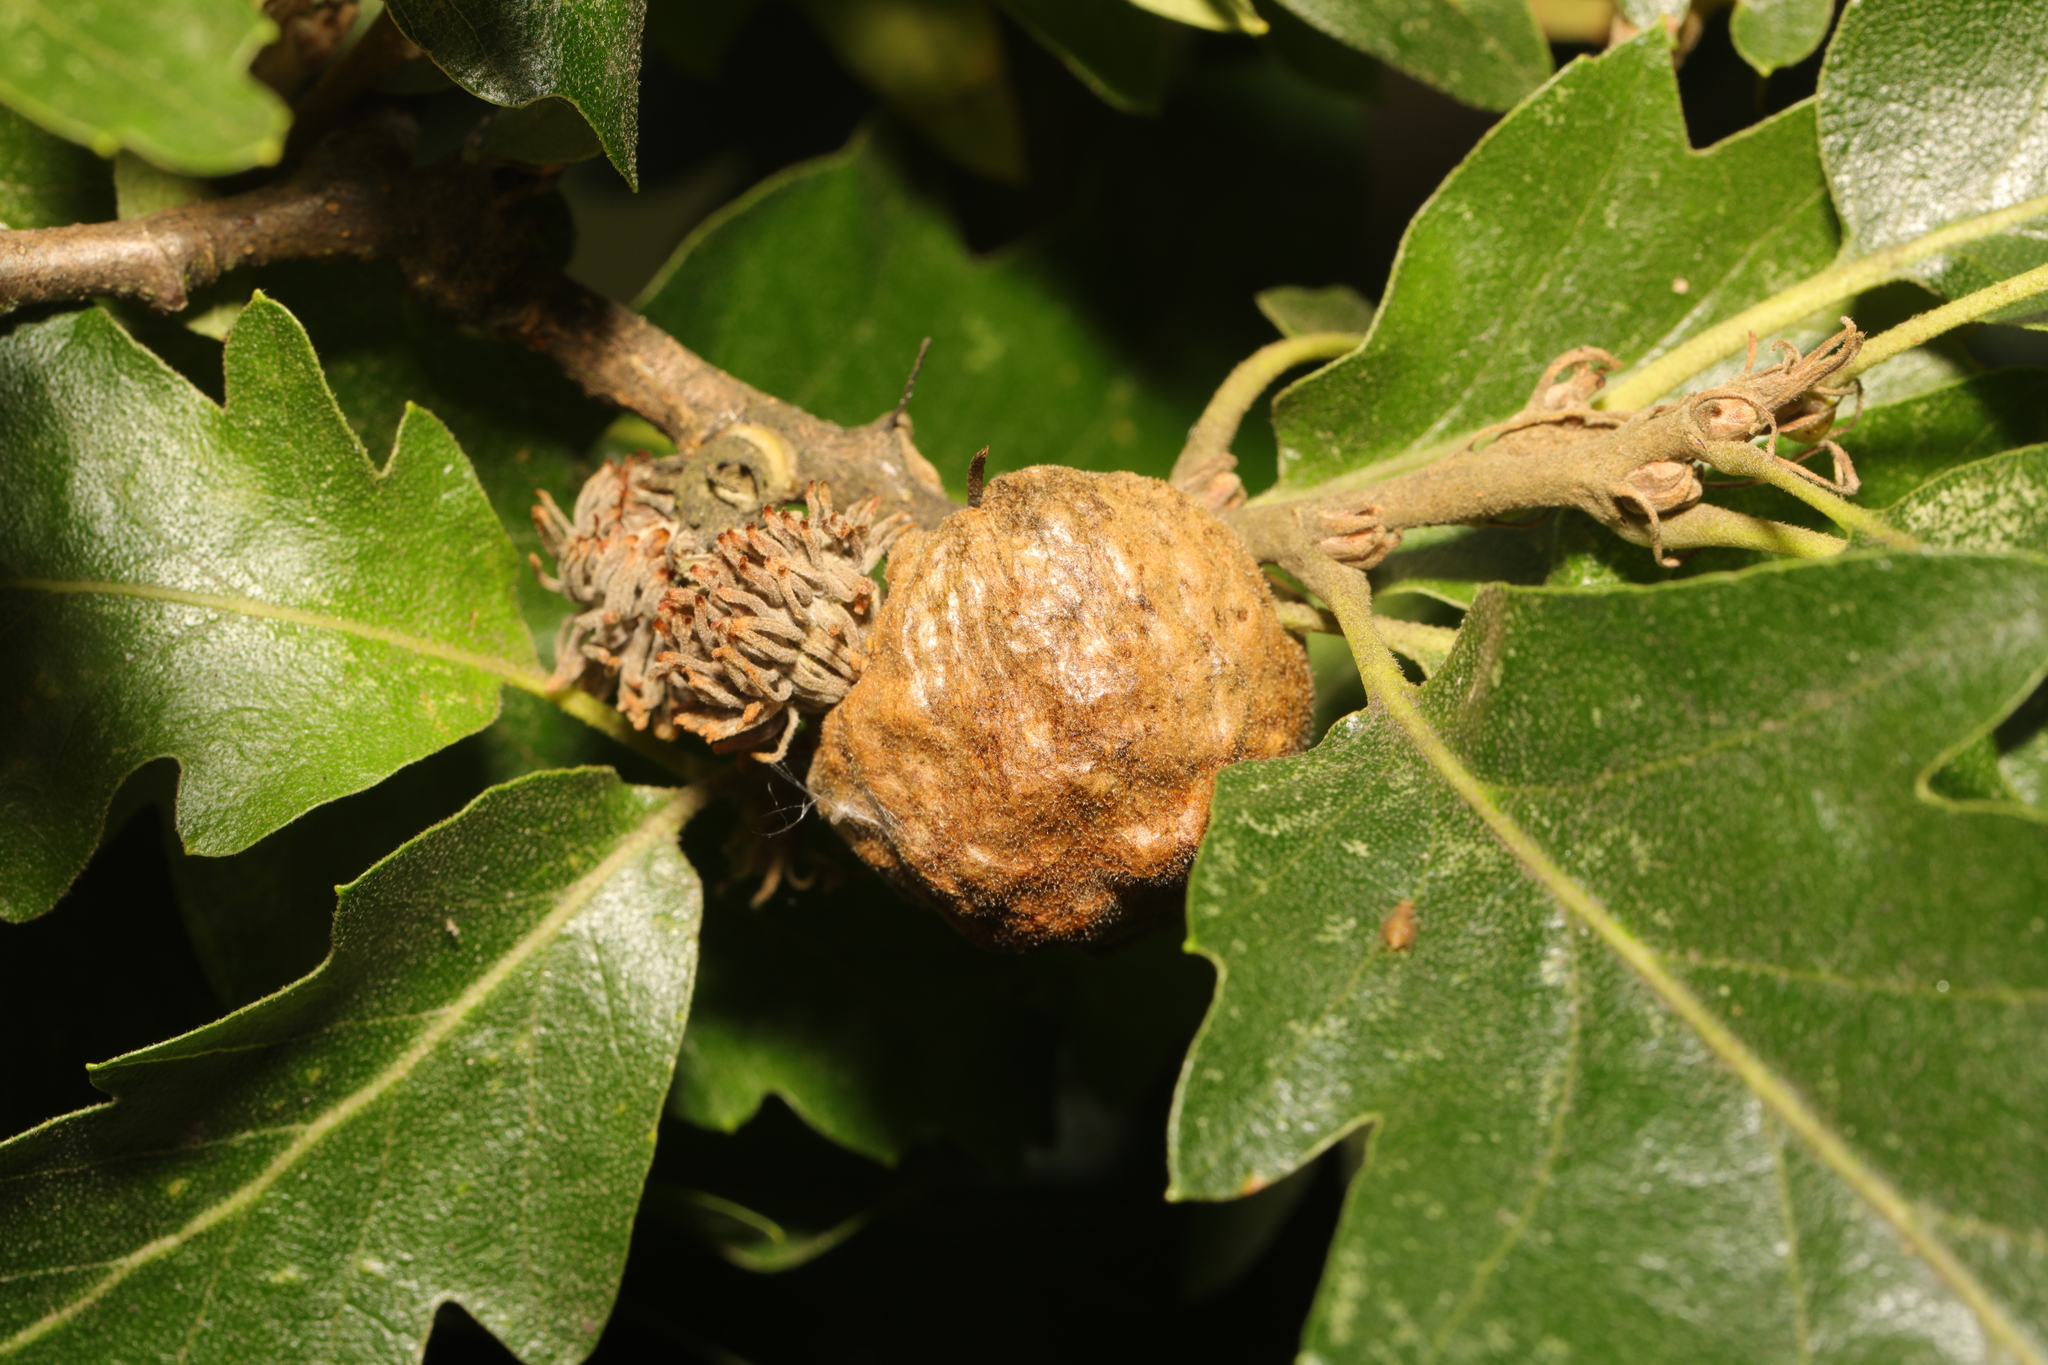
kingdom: Animalia
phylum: Arthropoda
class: Insecta
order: Hymenoptera
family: Cynipidae
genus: Aphelonyx
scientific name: Aphelonyx cerricola
